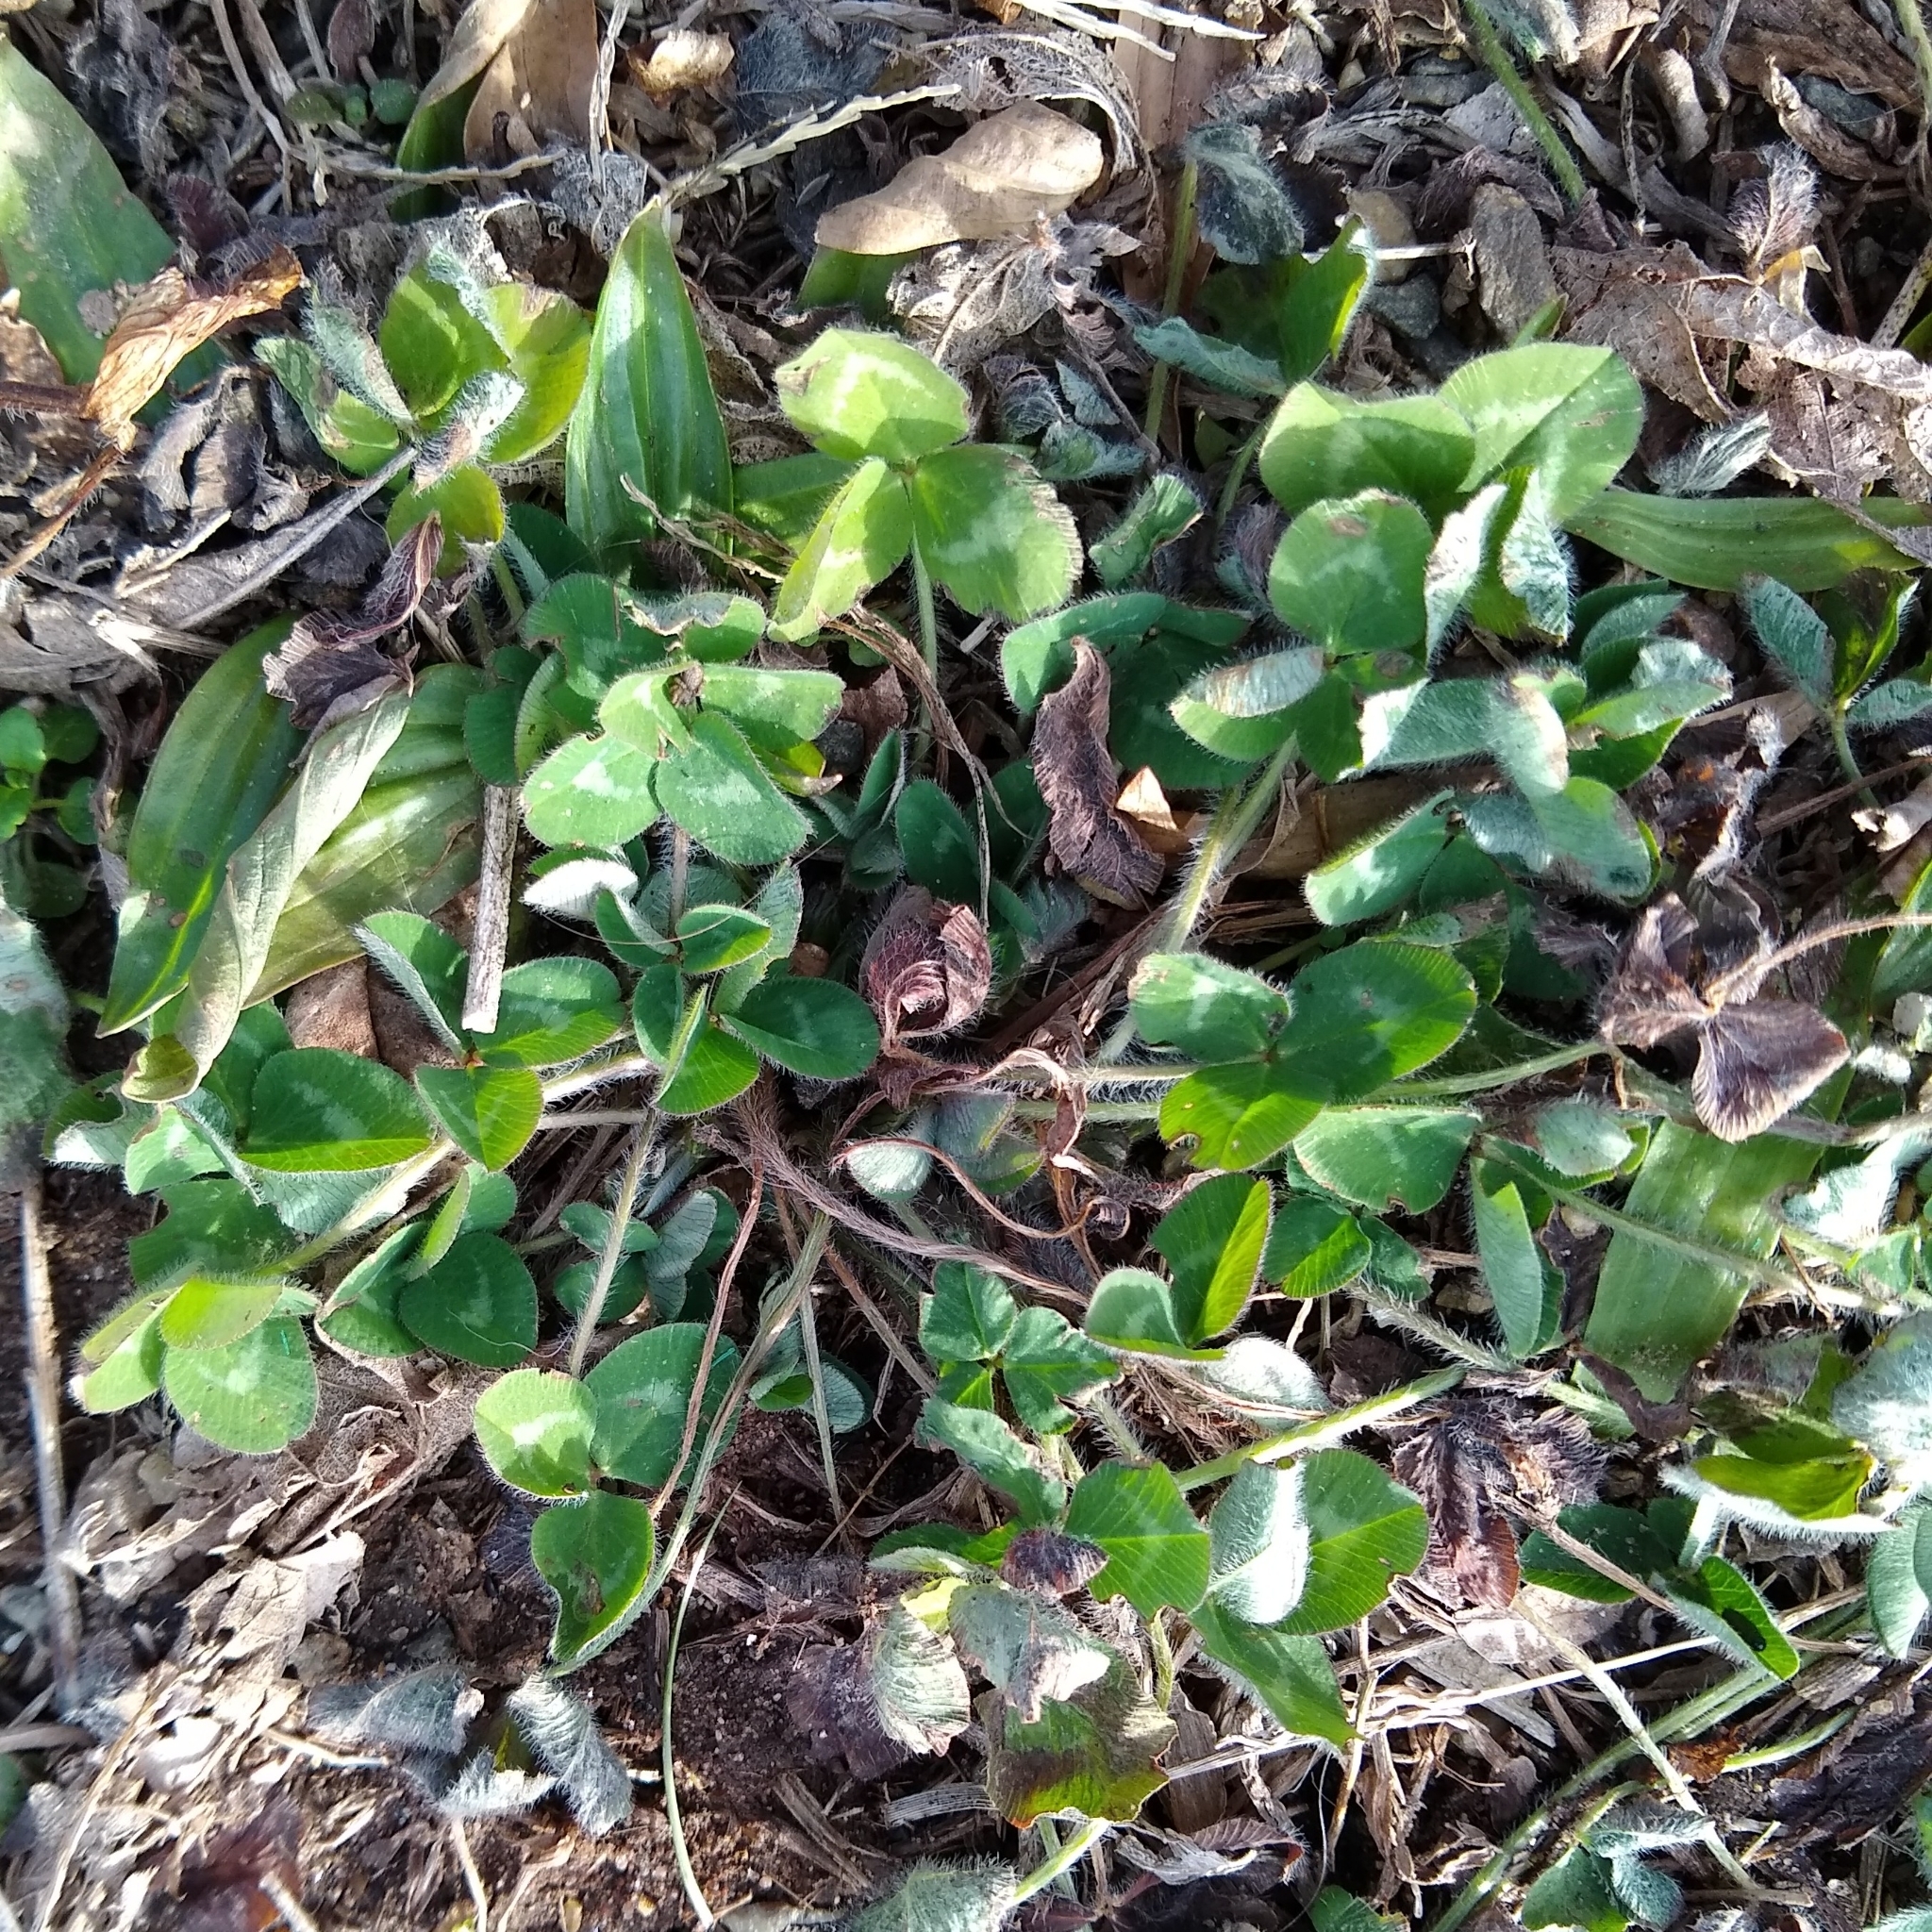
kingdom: Plantae
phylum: Tracheophyta
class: Magnoliopsida
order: Fabales
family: Fabaceae
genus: Trifolium
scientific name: Trifolium pratense
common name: Red clover
